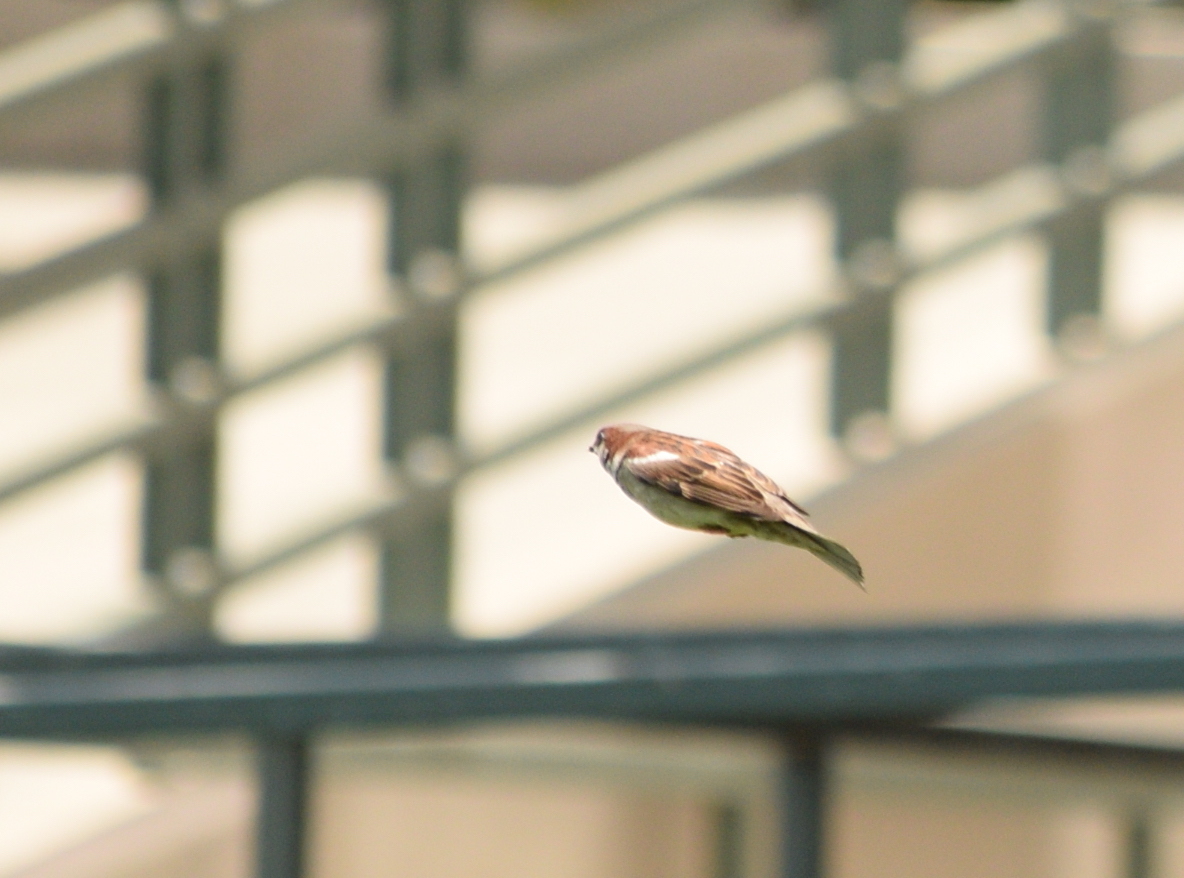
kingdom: Animalia
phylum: Chordata
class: Aves
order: Passeriformes
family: Passeridae
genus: Passer
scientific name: Passer domesticus
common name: House sparrow
